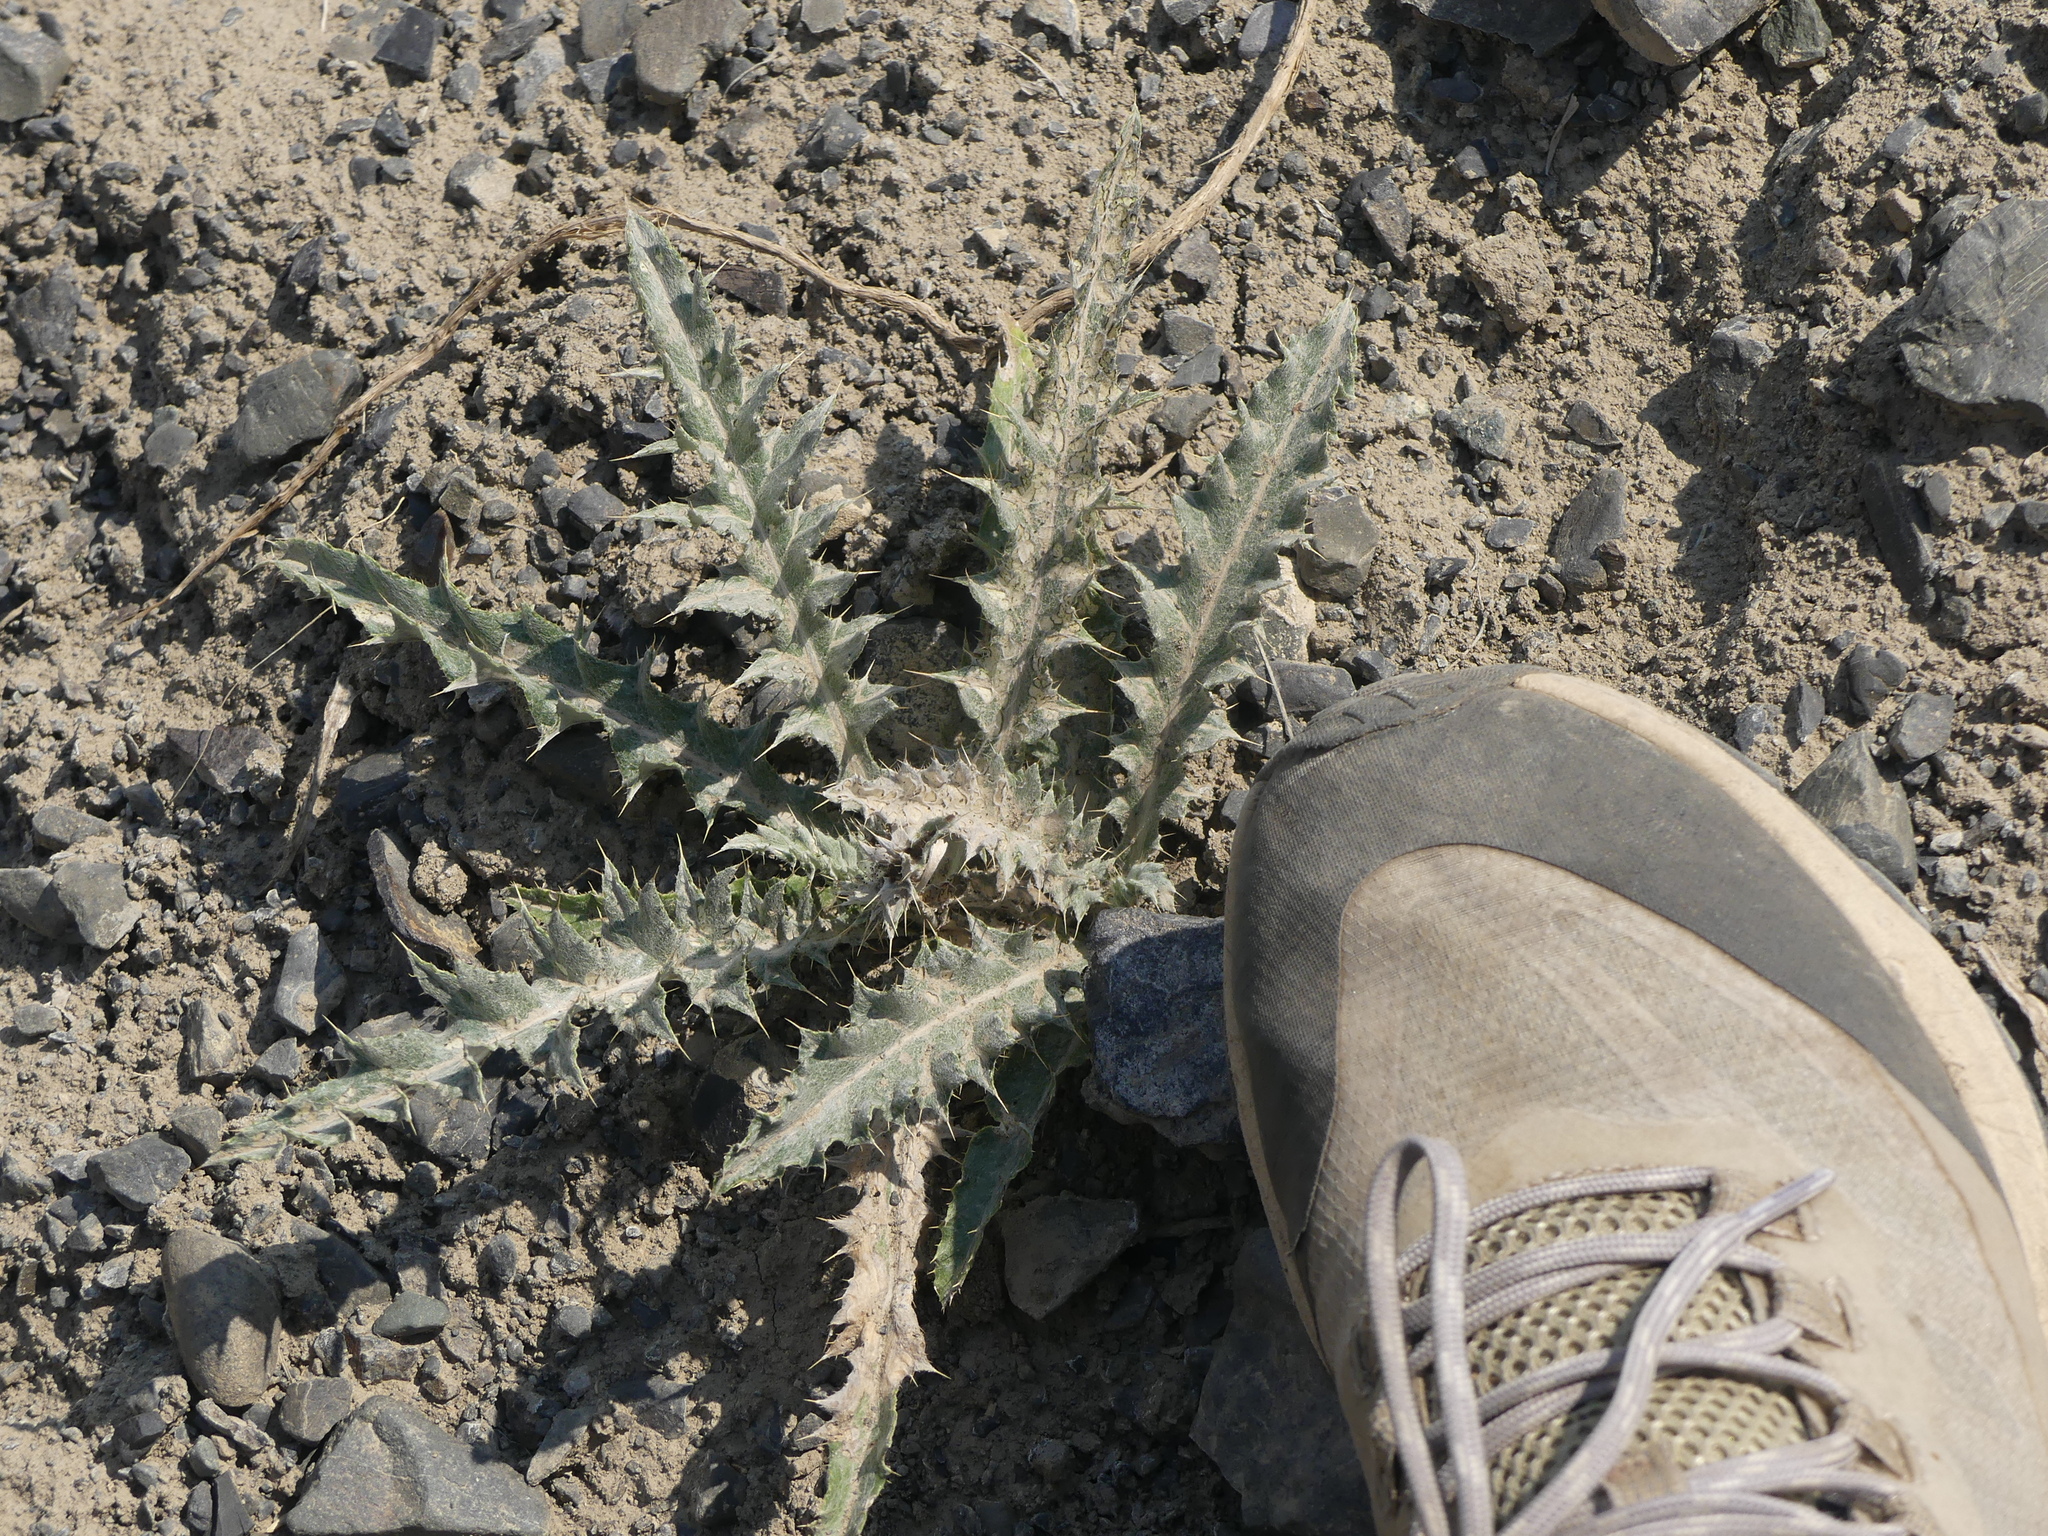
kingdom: Plantae
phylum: Tracheophyta
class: Magnoliopsida
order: Asterales
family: Asteraceae
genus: Cirsium
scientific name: Cirsium undulatum
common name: Pasture thistle
